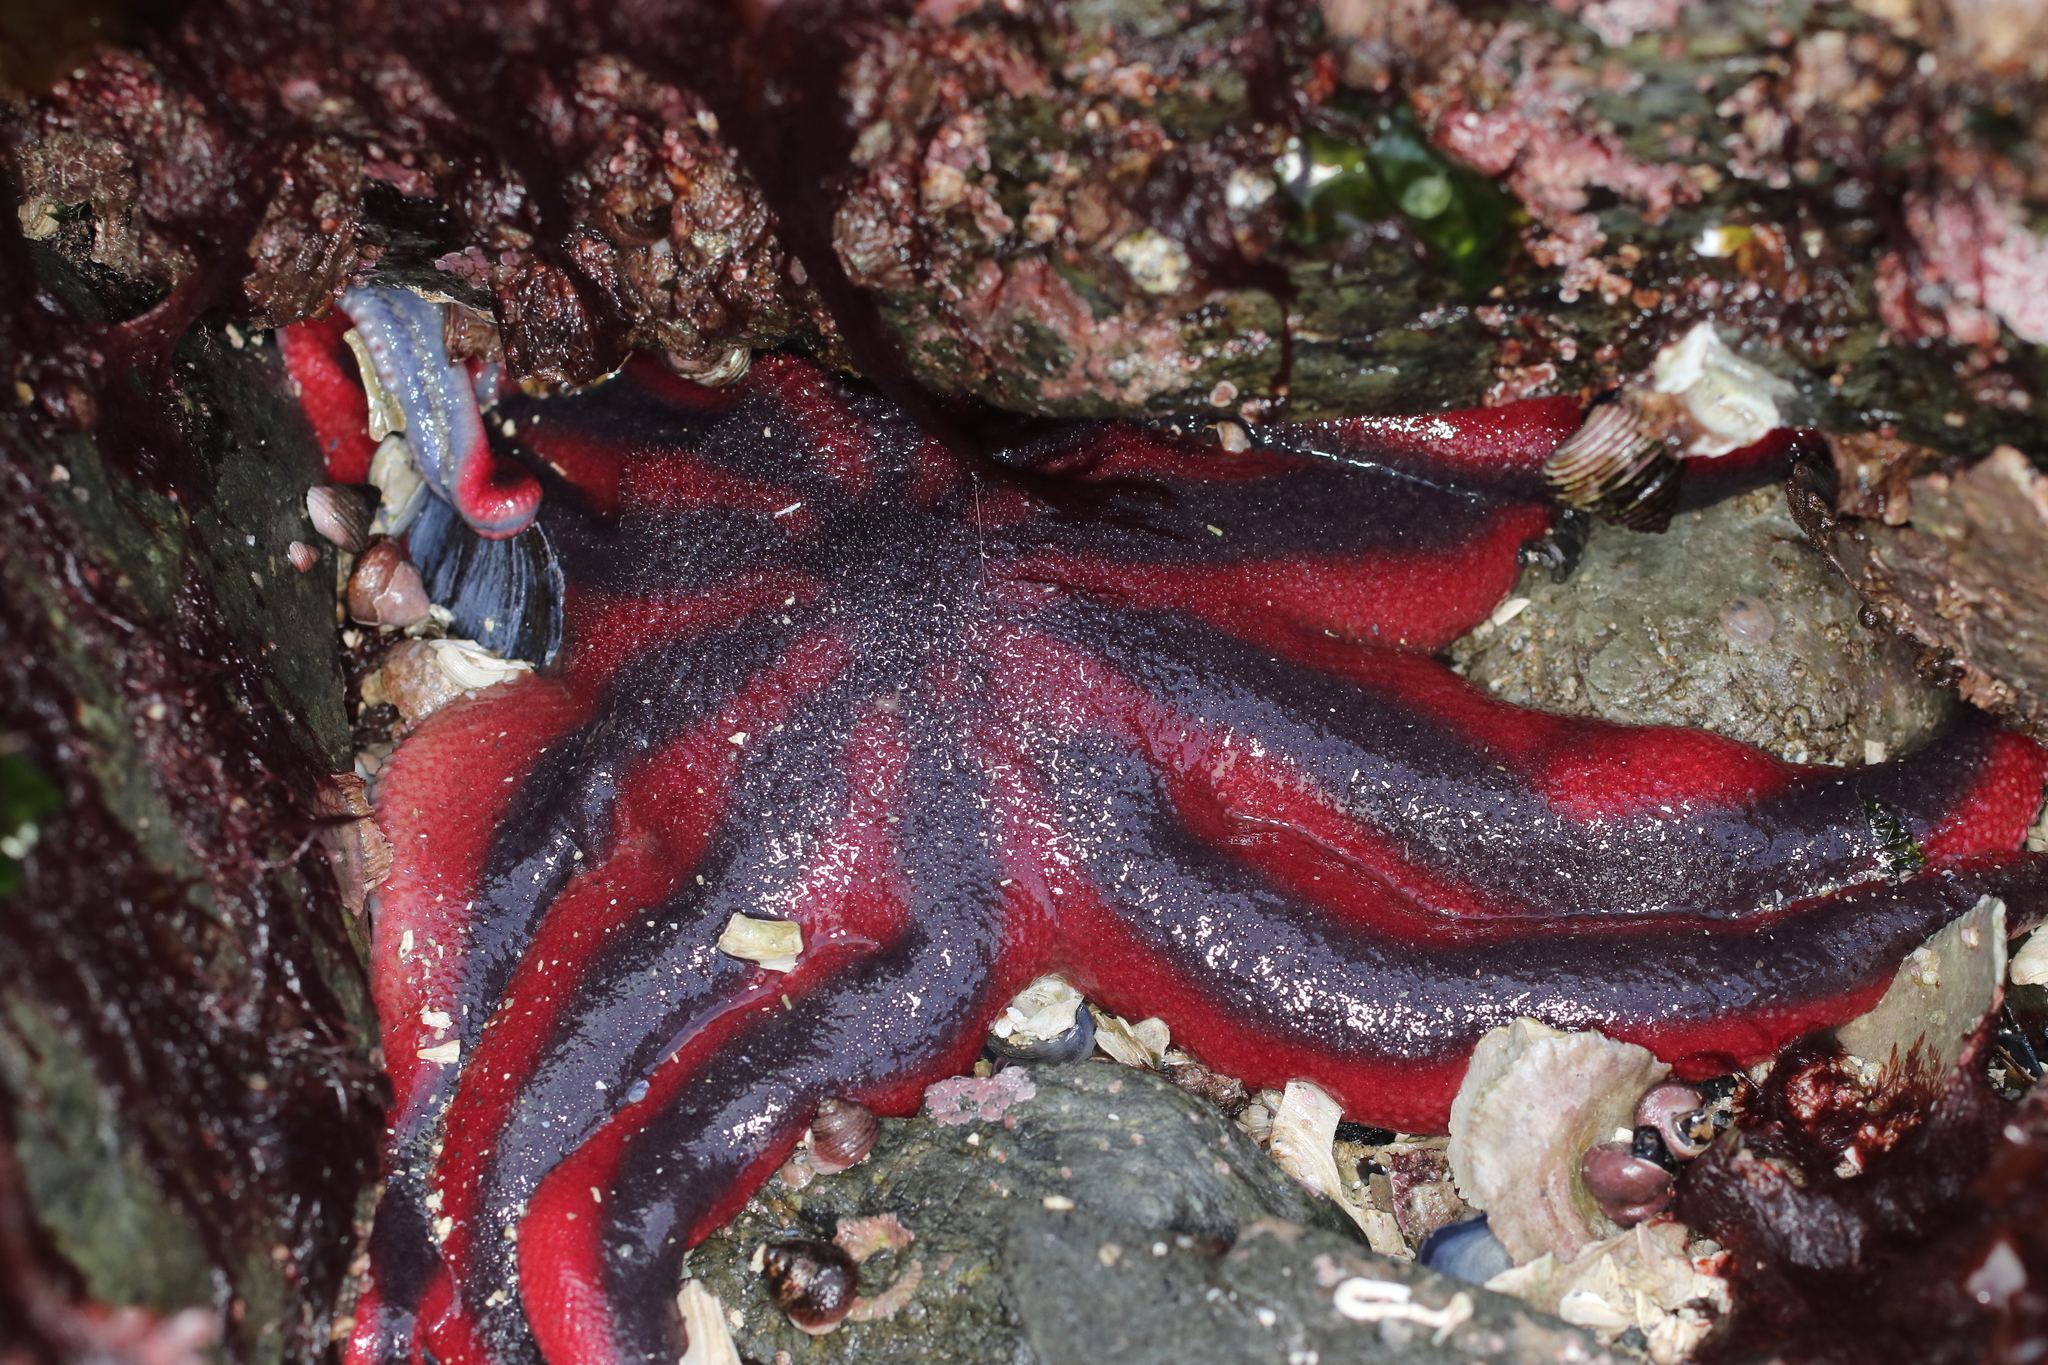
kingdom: Animalia
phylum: Echinodermata
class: Asteroidea
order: Valvatida
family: Solasteridae
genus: Solaster
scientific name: Solaster stimpsoni
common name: Orange sun star
